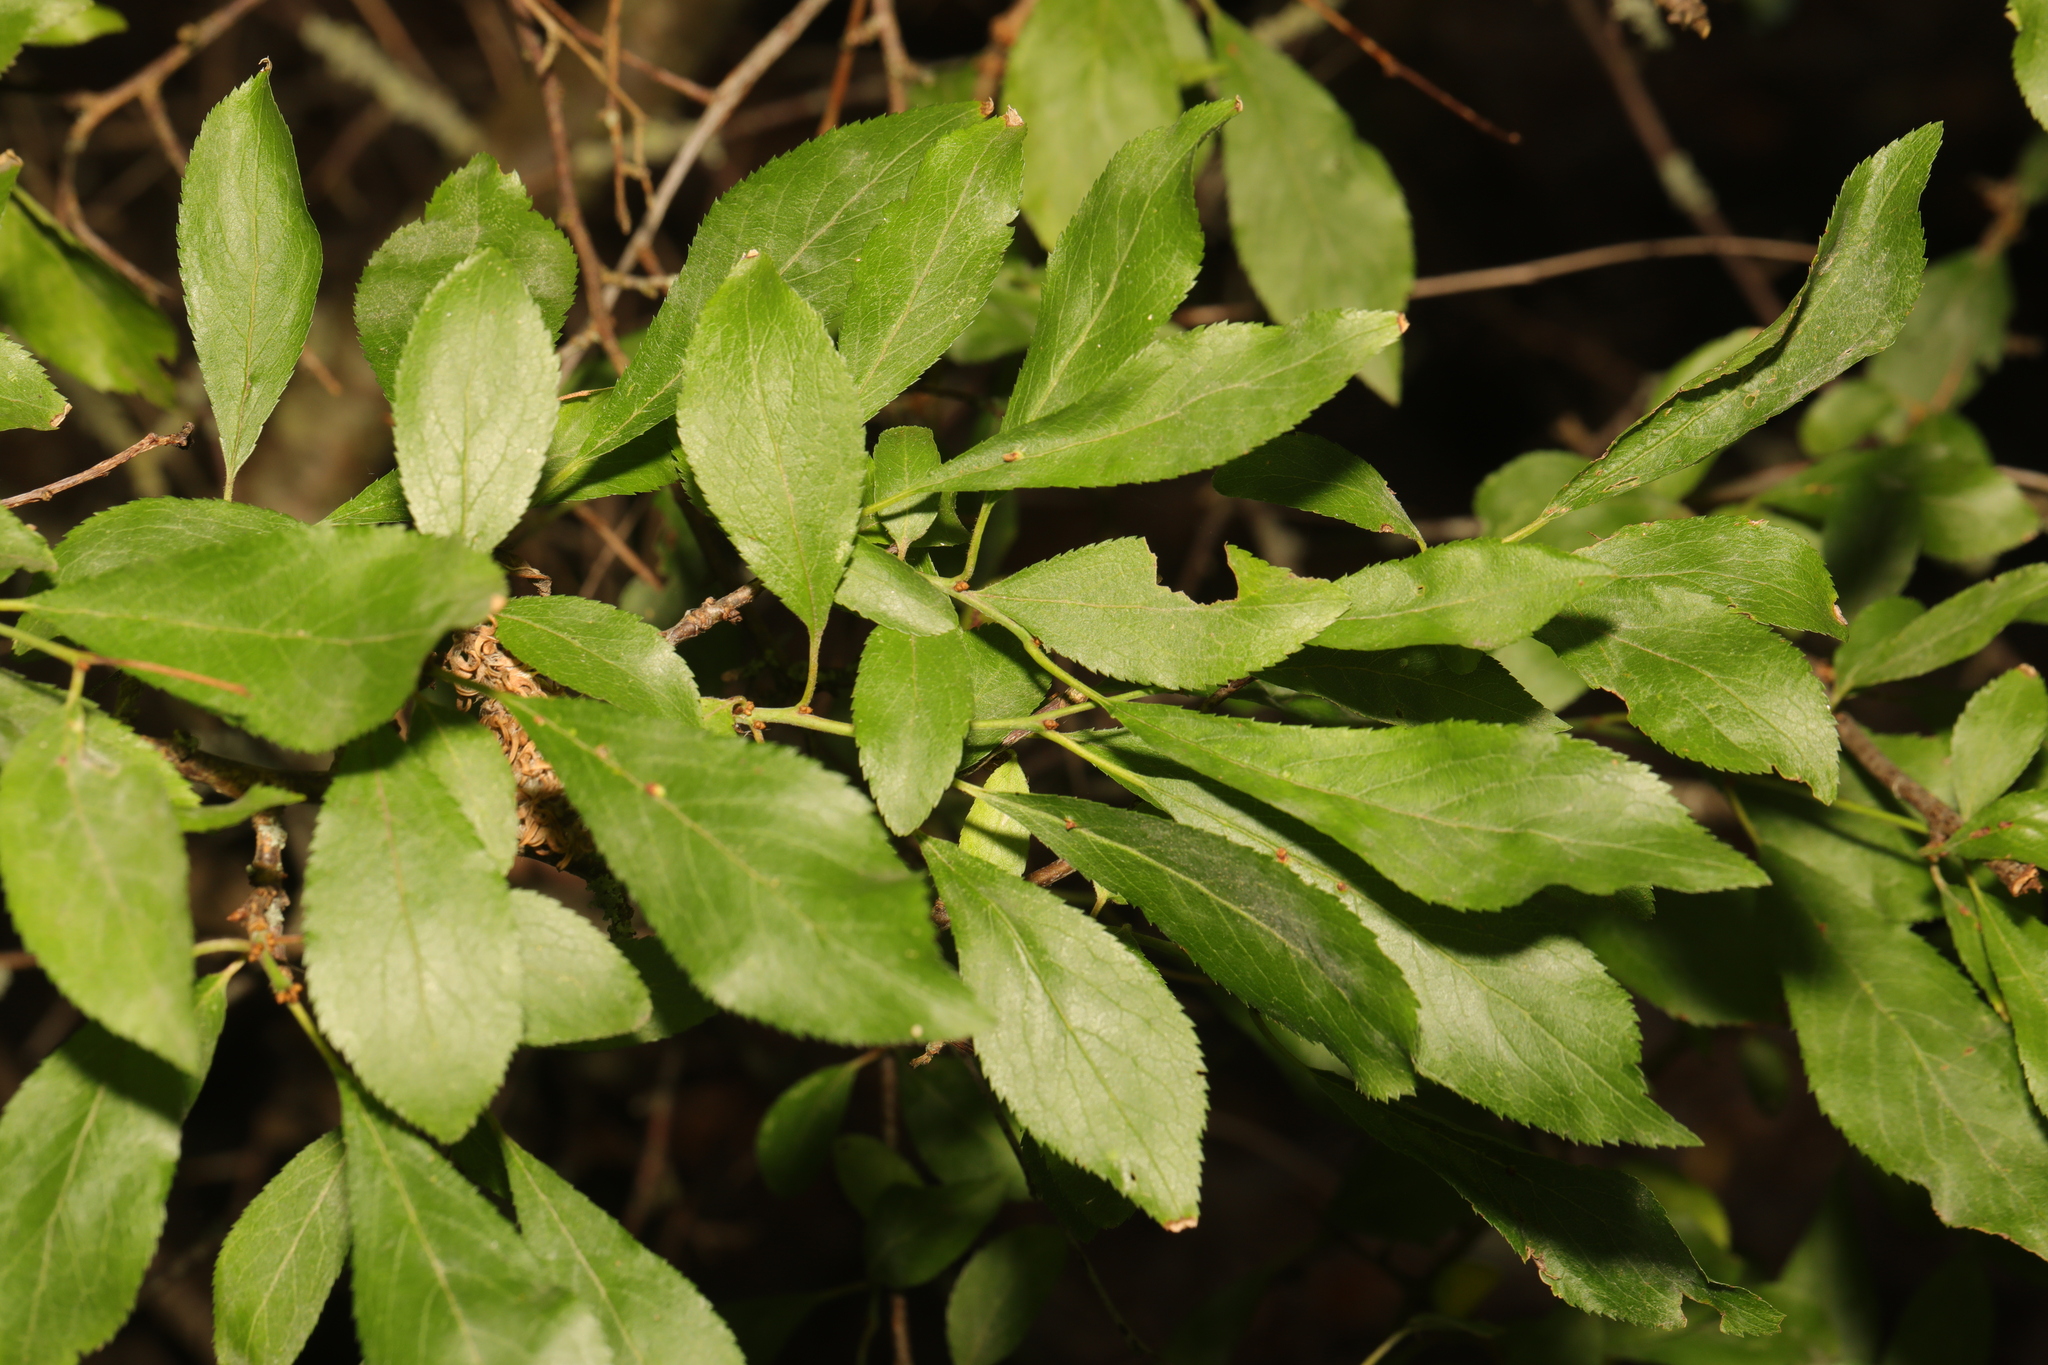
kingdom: Plantae
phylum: Tracheophyta
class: Magnoliopsida
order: Rosales
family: Rosaceae
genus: Prunus
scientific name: Prunus spinosa
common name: Blackthorn
